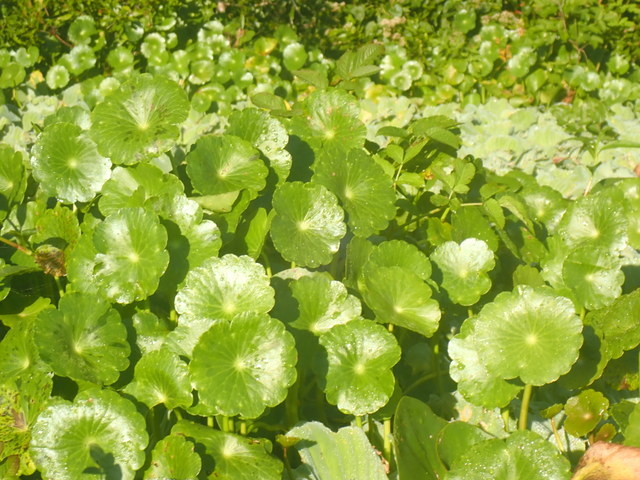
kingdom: Plantae
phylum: Tracheophyta
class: Magnoliopsida
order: Apiales
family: Araliaceae
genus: Hydrocotyle
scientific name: Hydrocotyle
